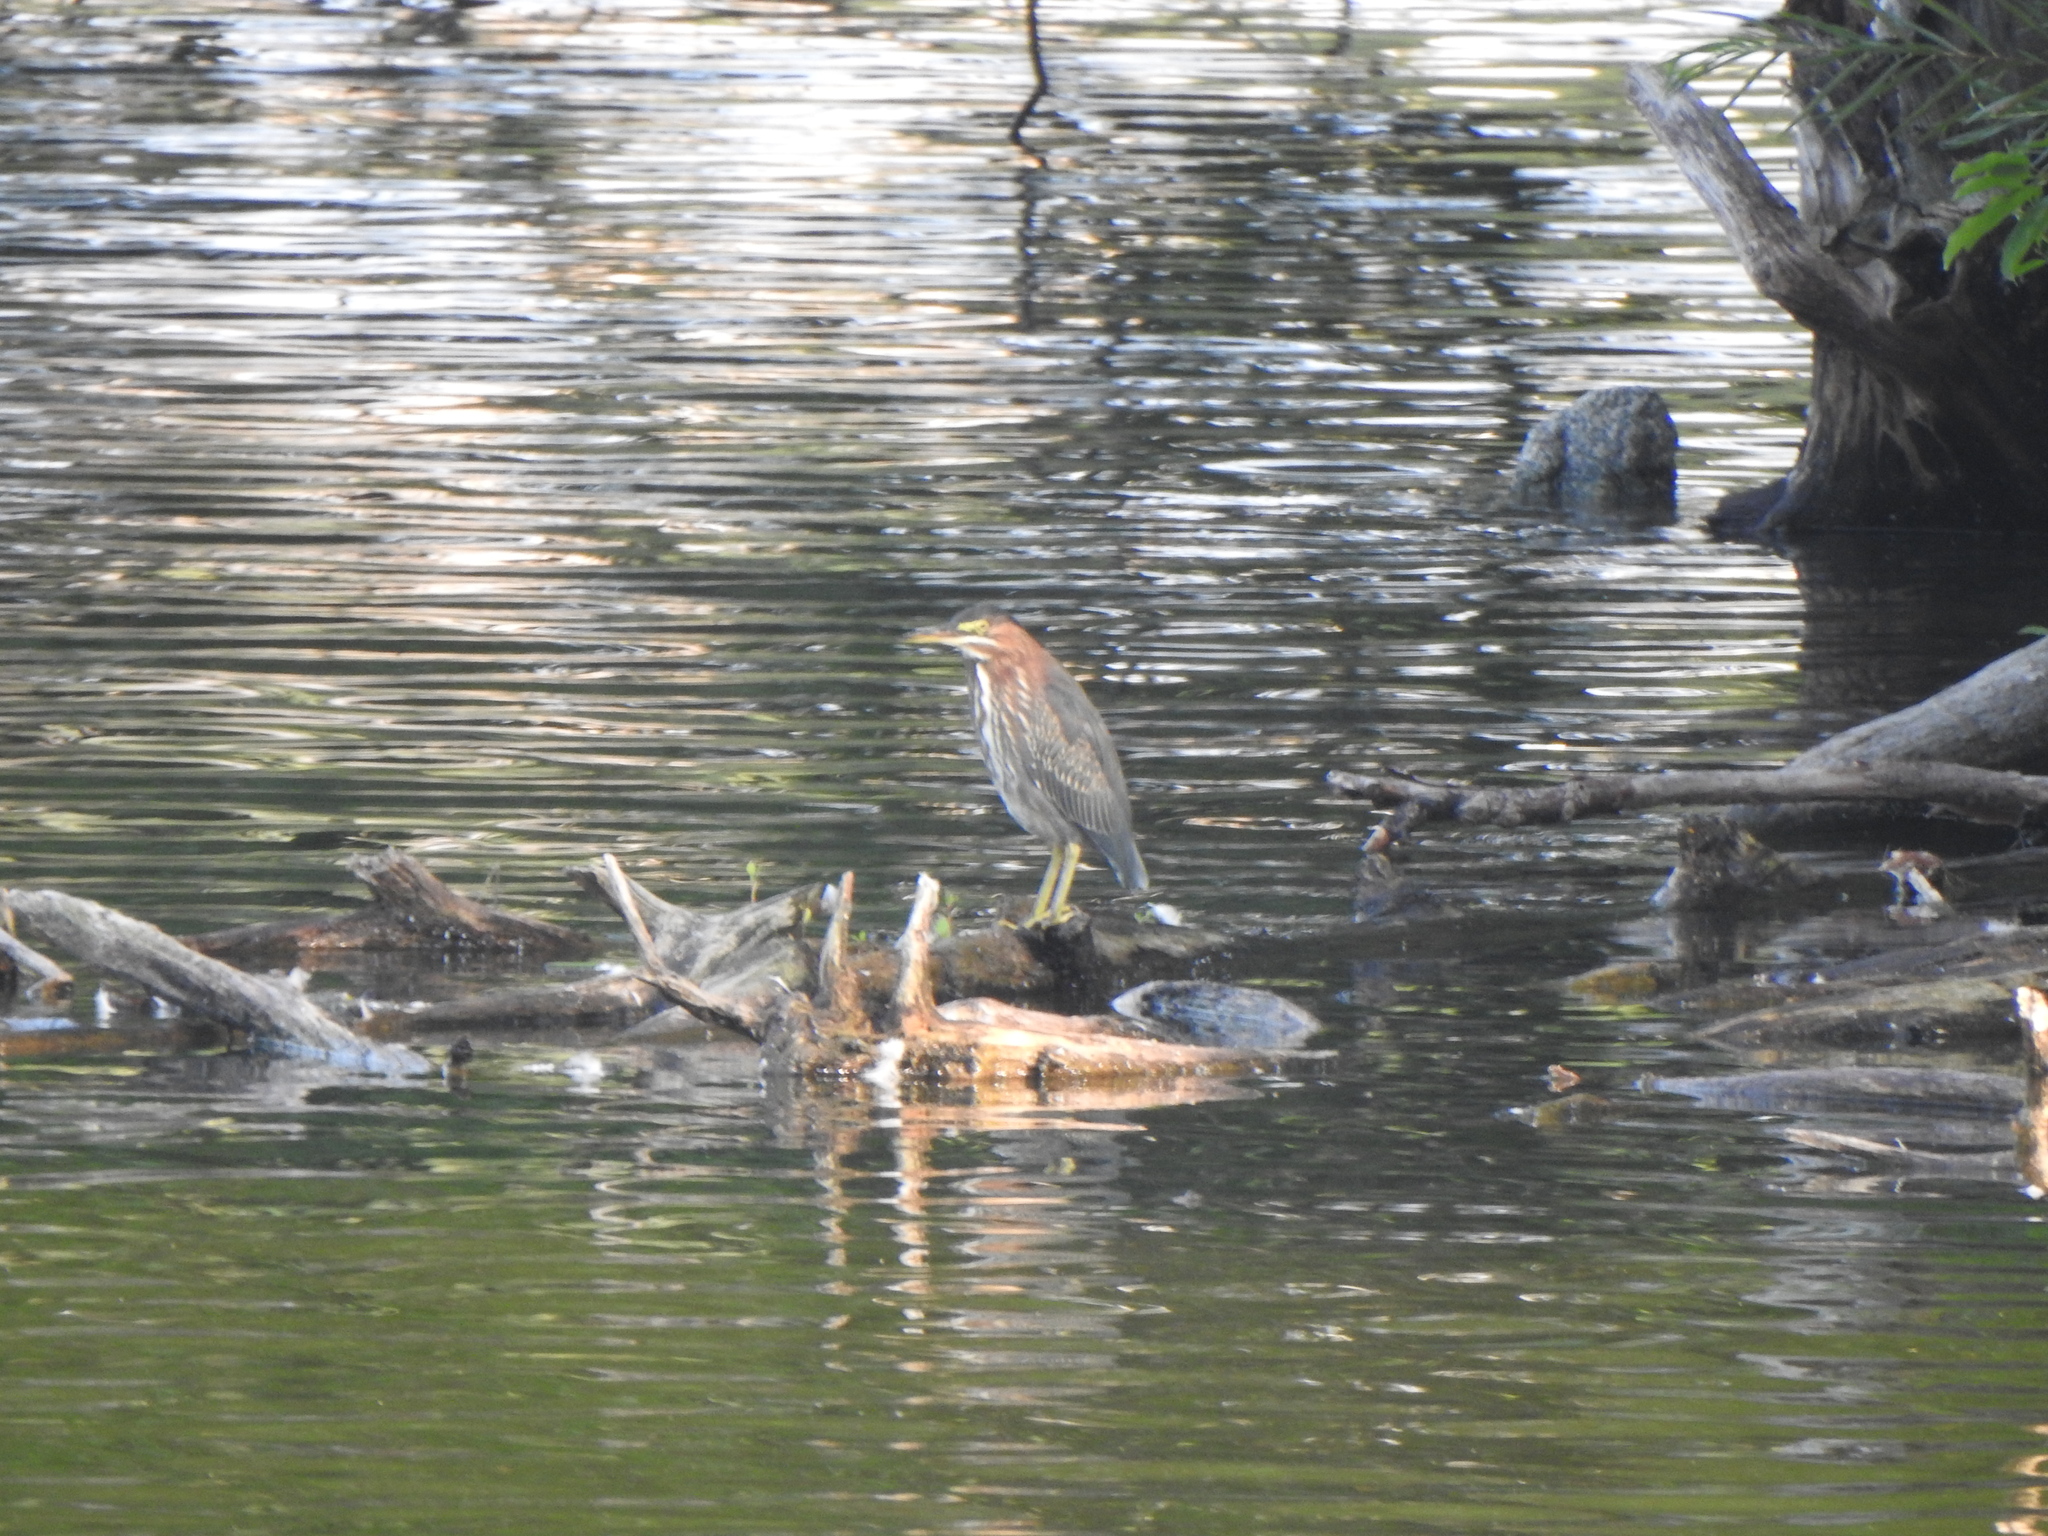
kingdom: Animalia
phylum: Chordata
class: Aves
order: Pelecaniformes
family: Ardeidae
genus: Butorides
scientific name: Butorides virescens
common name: Green heron
